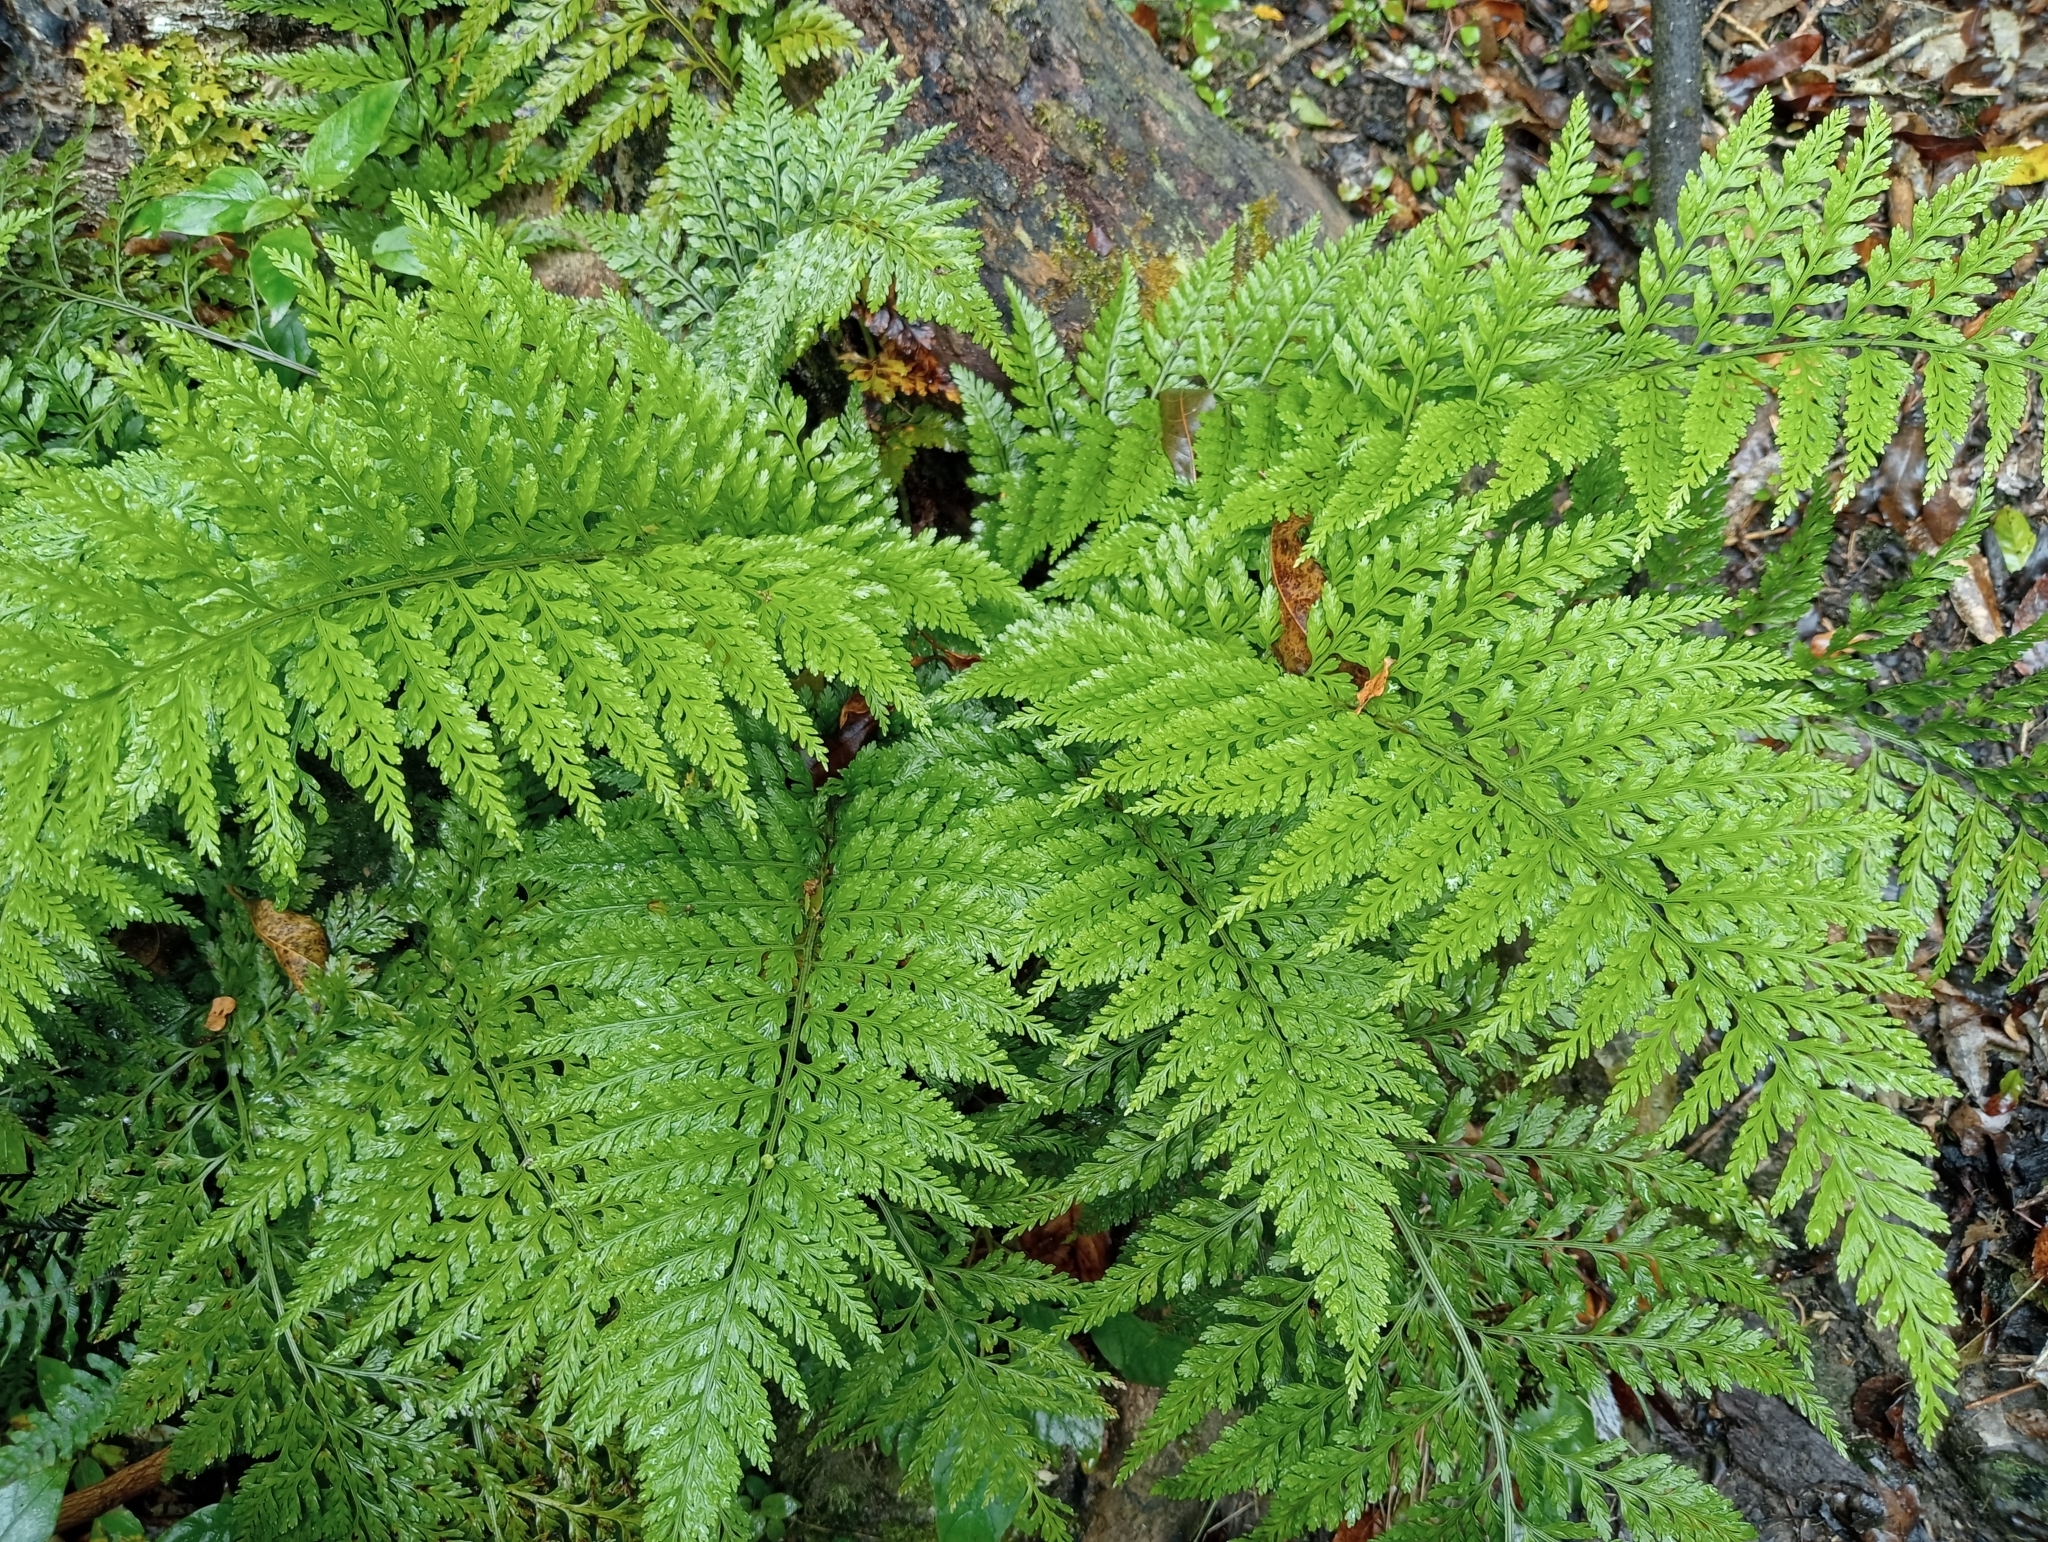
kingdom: Plantae
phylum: Tracheophyta
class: Polypodiopsida
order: Polypodiales
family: Aspleniaceae
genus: Asplenium
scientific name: Asplenium
